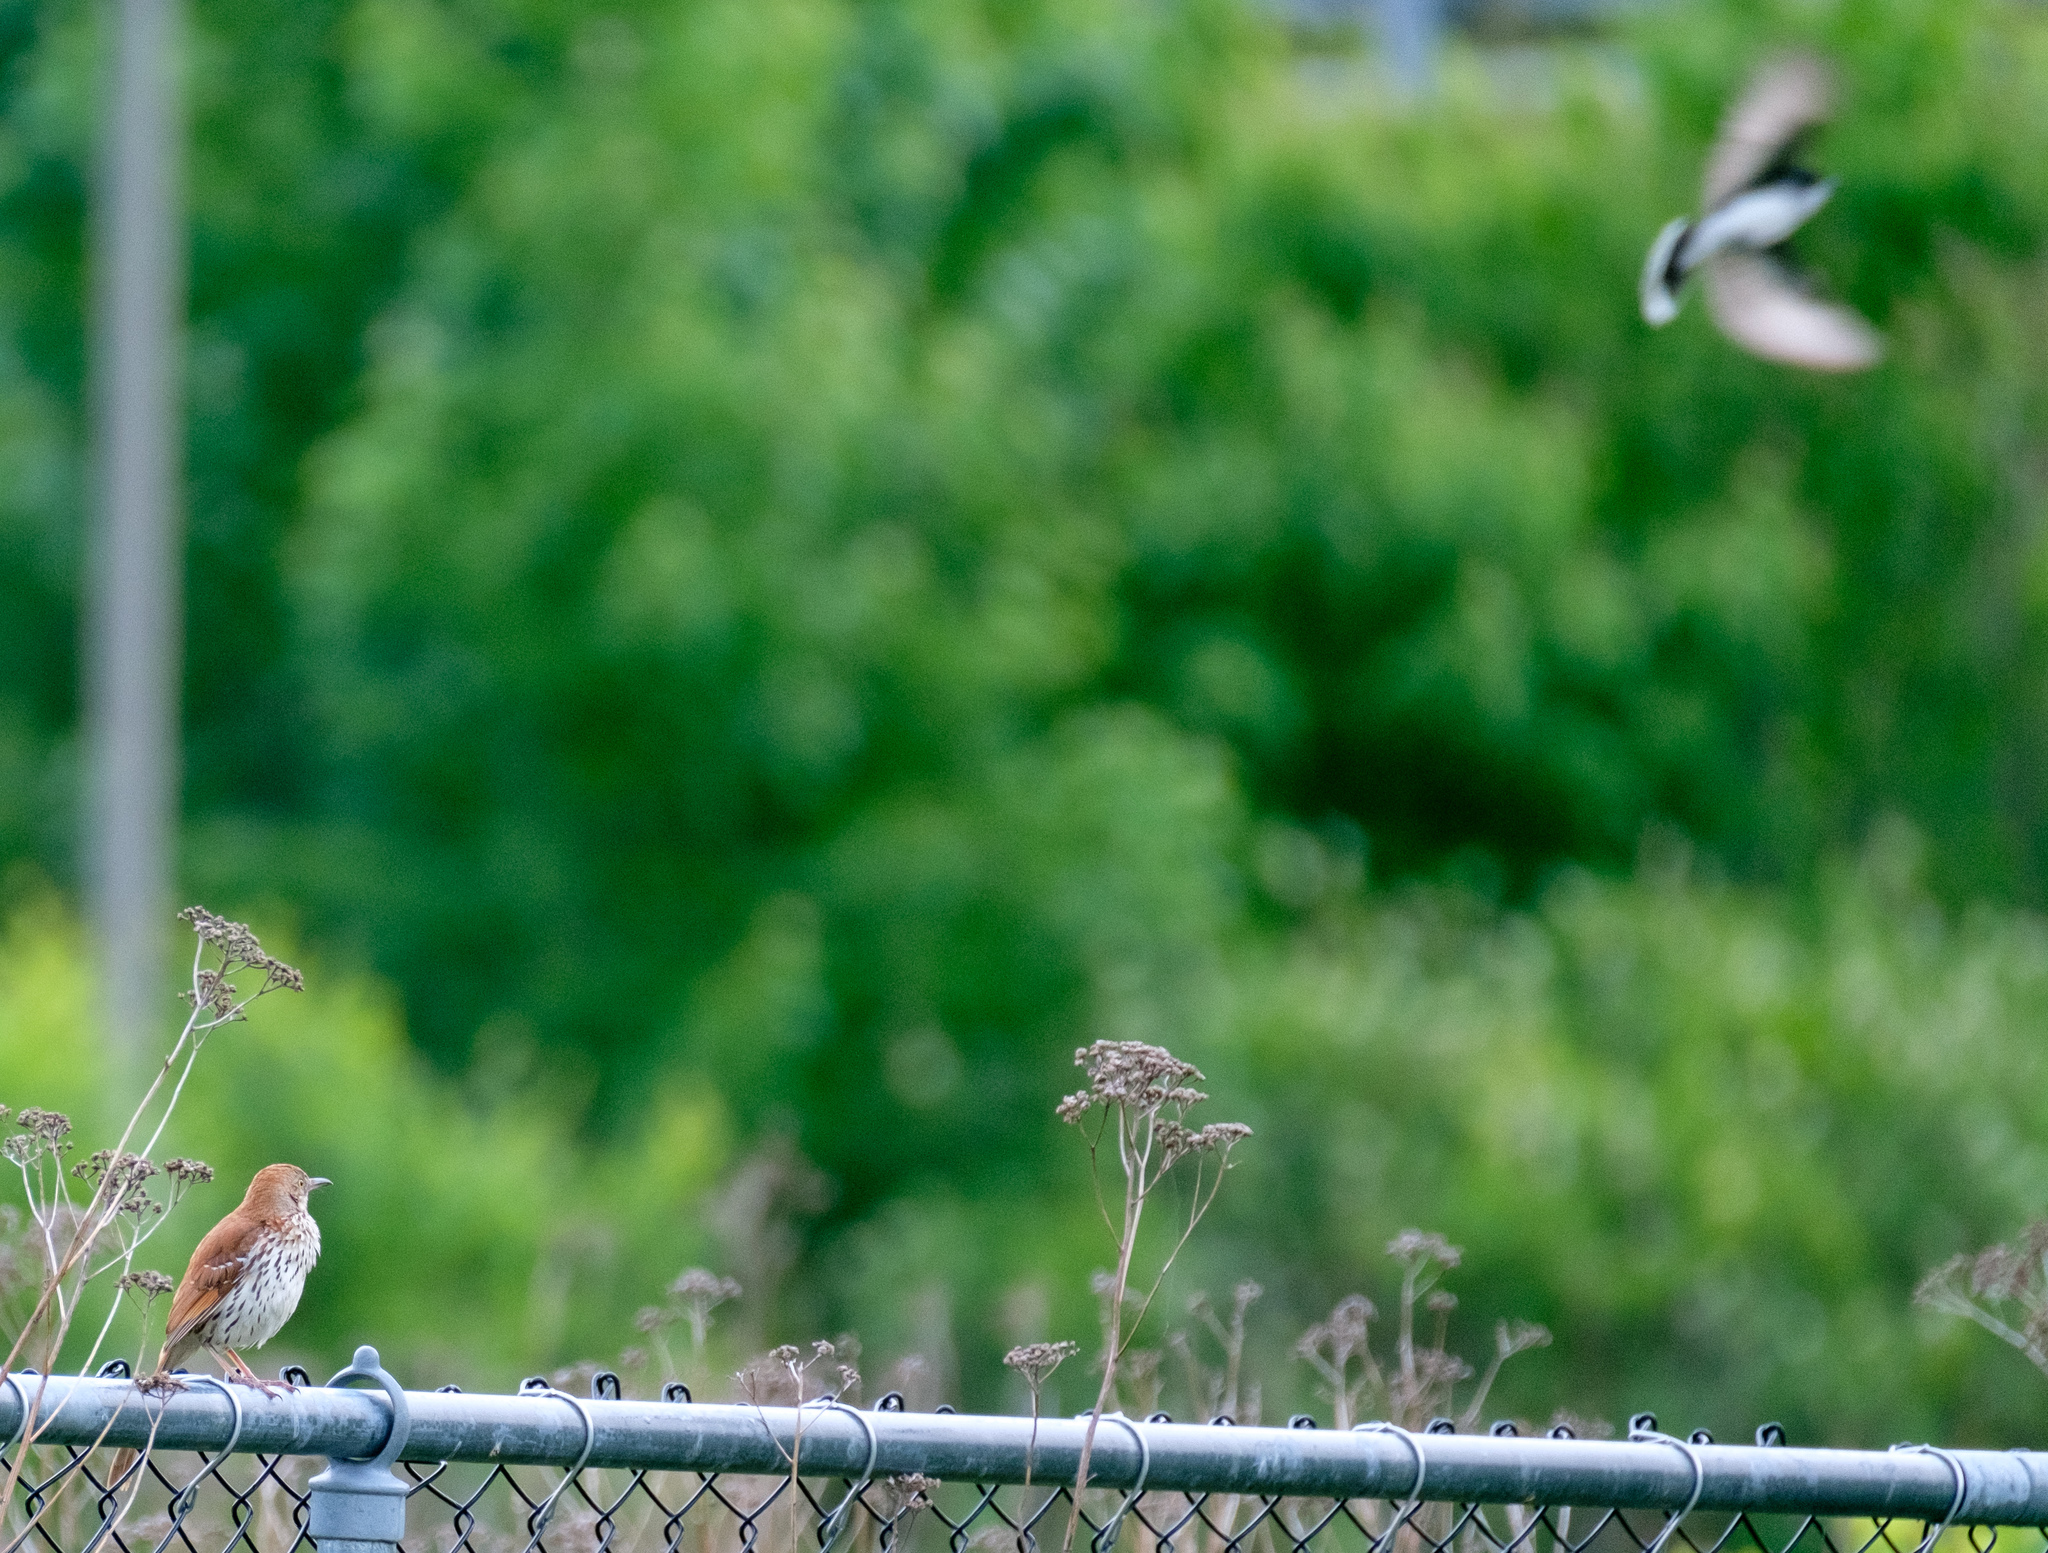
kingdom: Animalia
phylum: Chordata
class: Aves
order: Passeriformes
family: Mimidae
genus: Toxostoma
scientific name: Toxostoma rufum
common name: Brown thrasher
